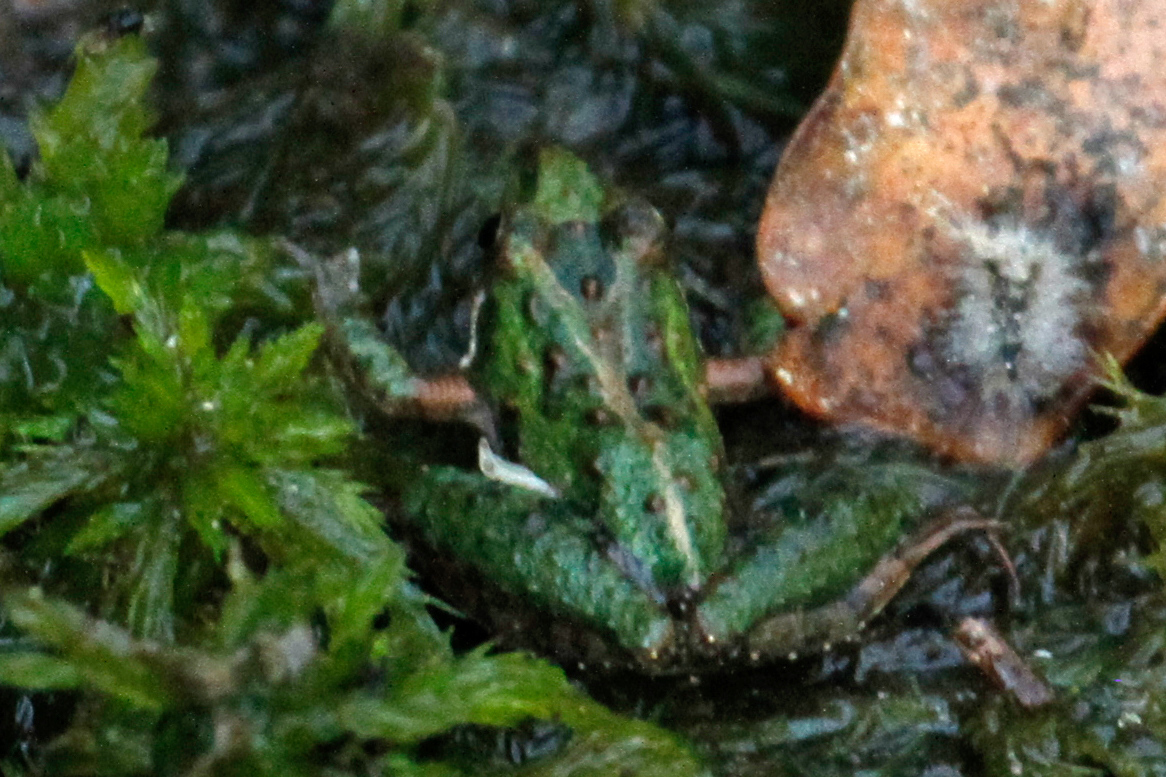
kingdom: Animalia
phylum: Chordata
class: Amphibia
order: Anura
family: Hylidae
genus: Acris
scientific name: Acris gryllus
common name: Southern cricket frog
